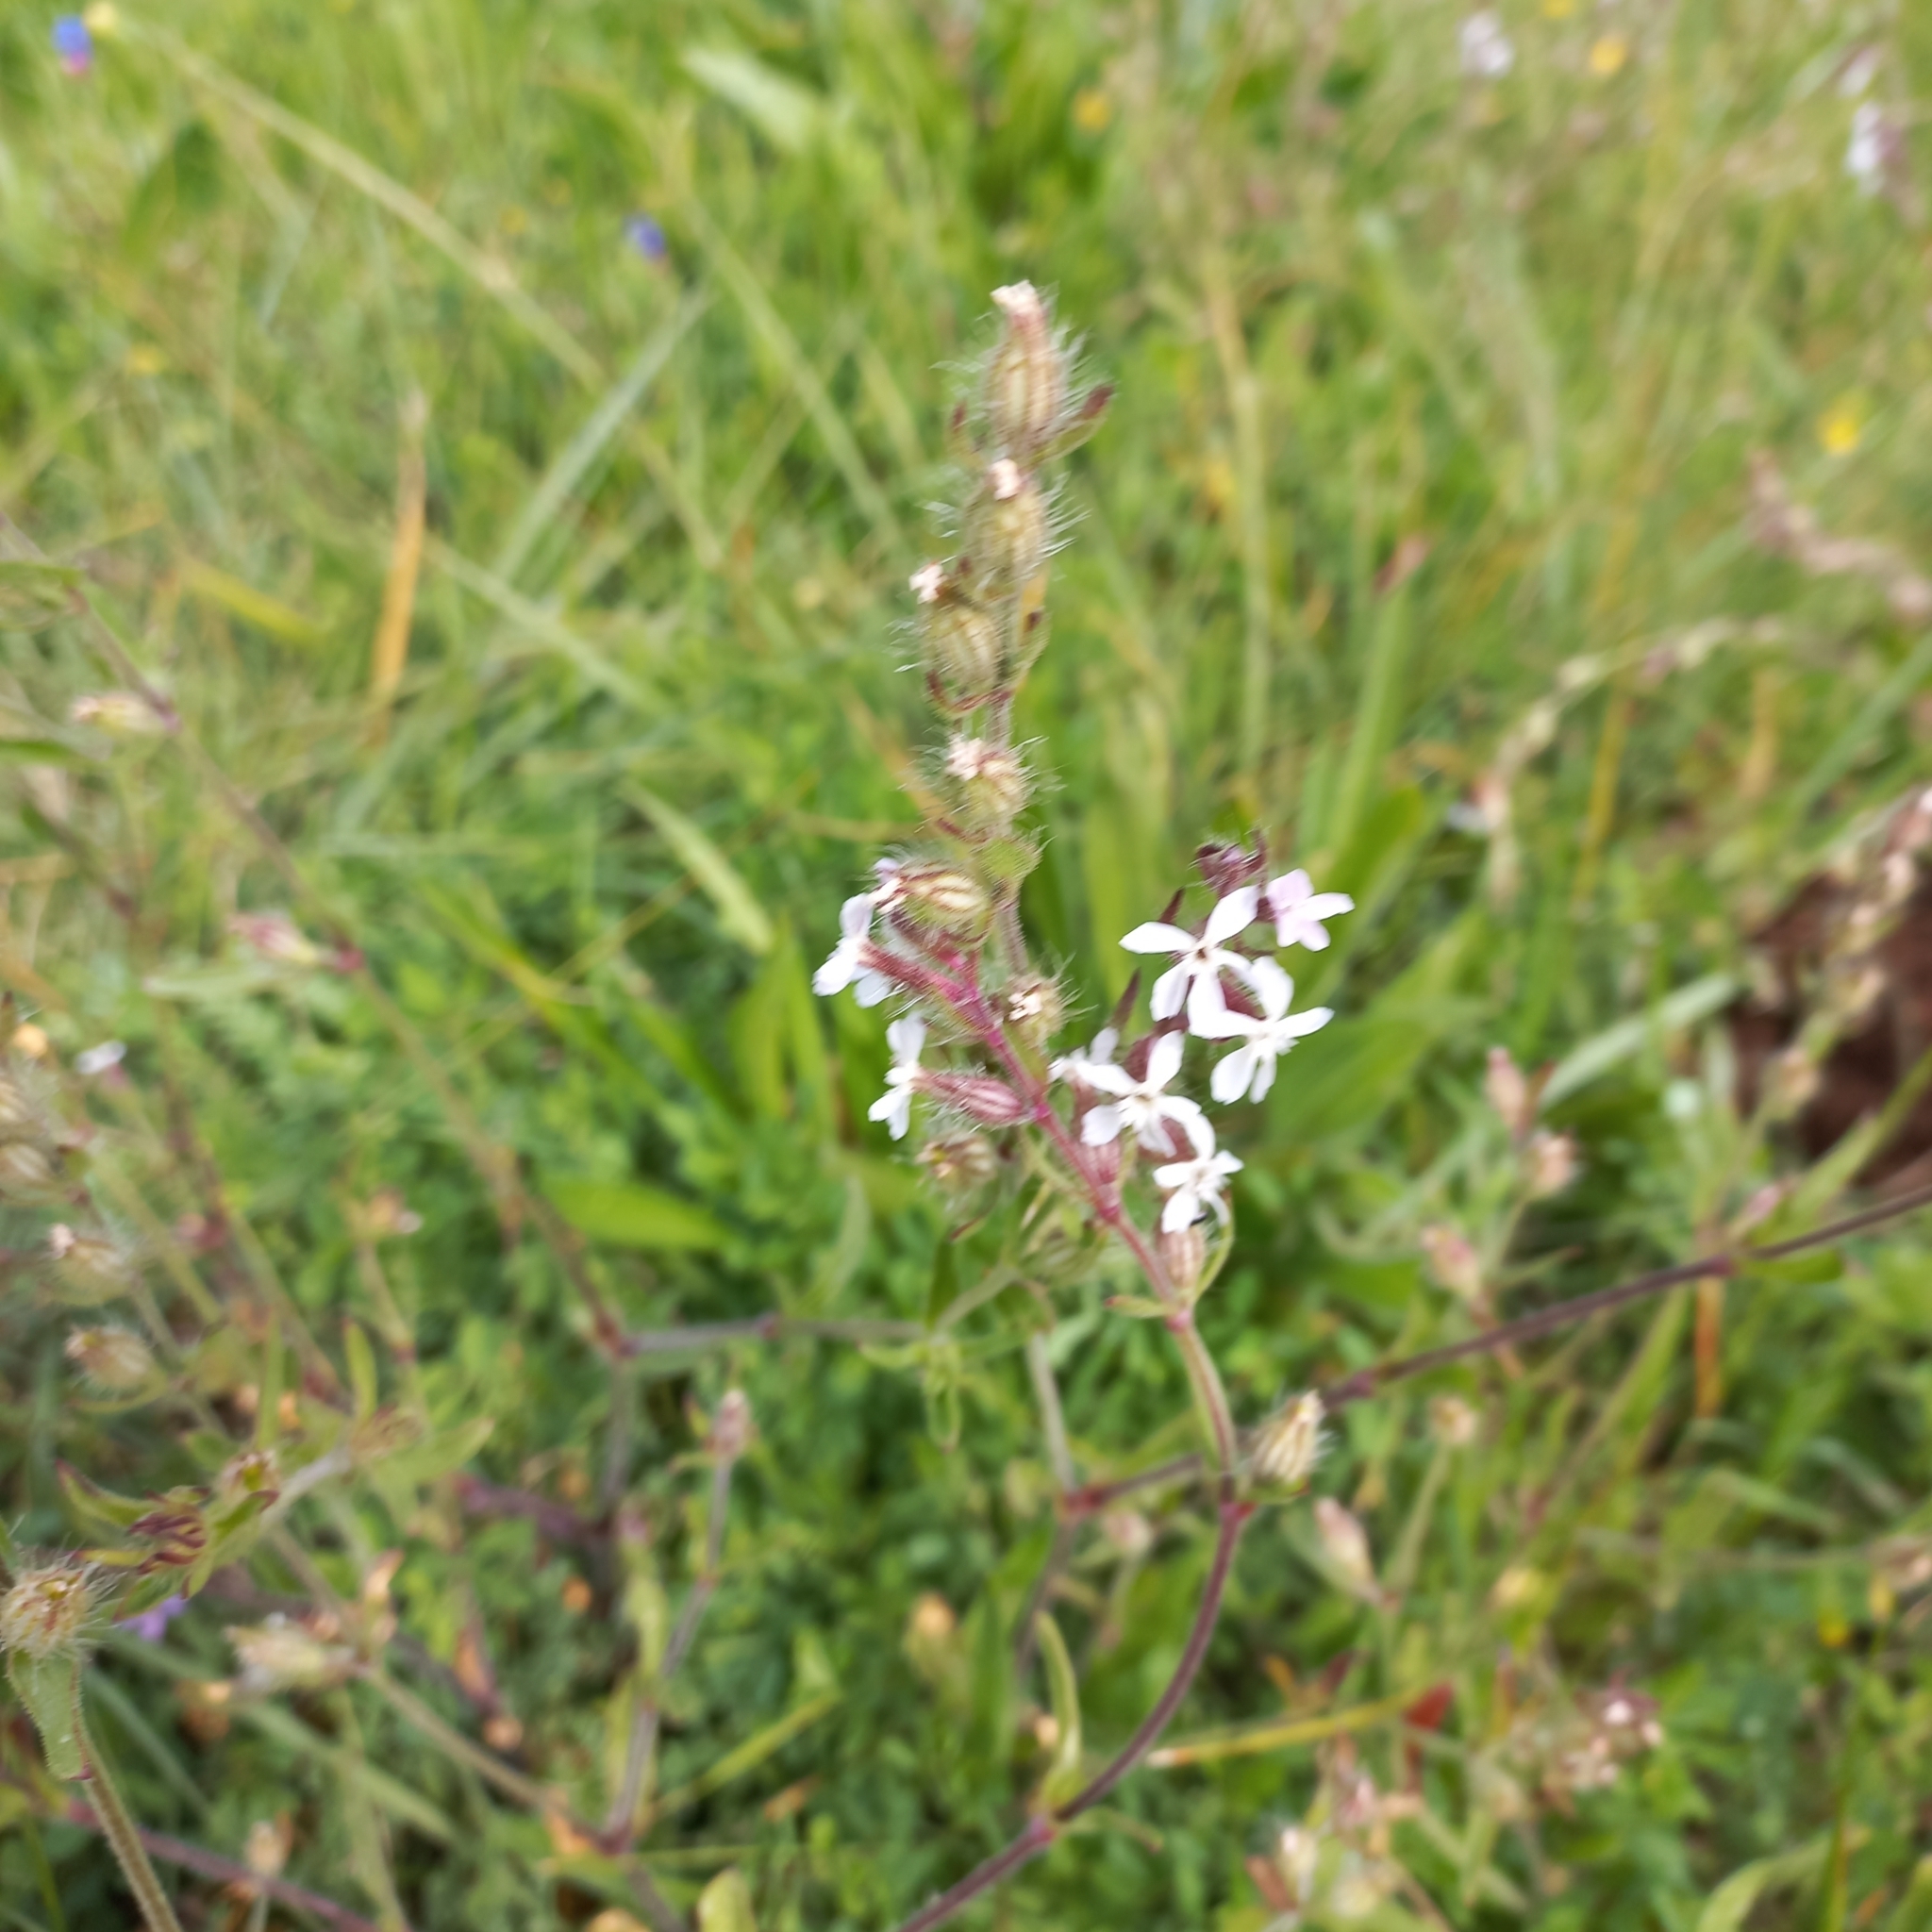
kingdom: Plantae
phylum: Tracheophyta
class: Magnoliopsida
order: Caryophyllales
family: Caryophyllaceae
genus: Silene
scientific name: Silene gallica
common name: Small-flowered catchfly
